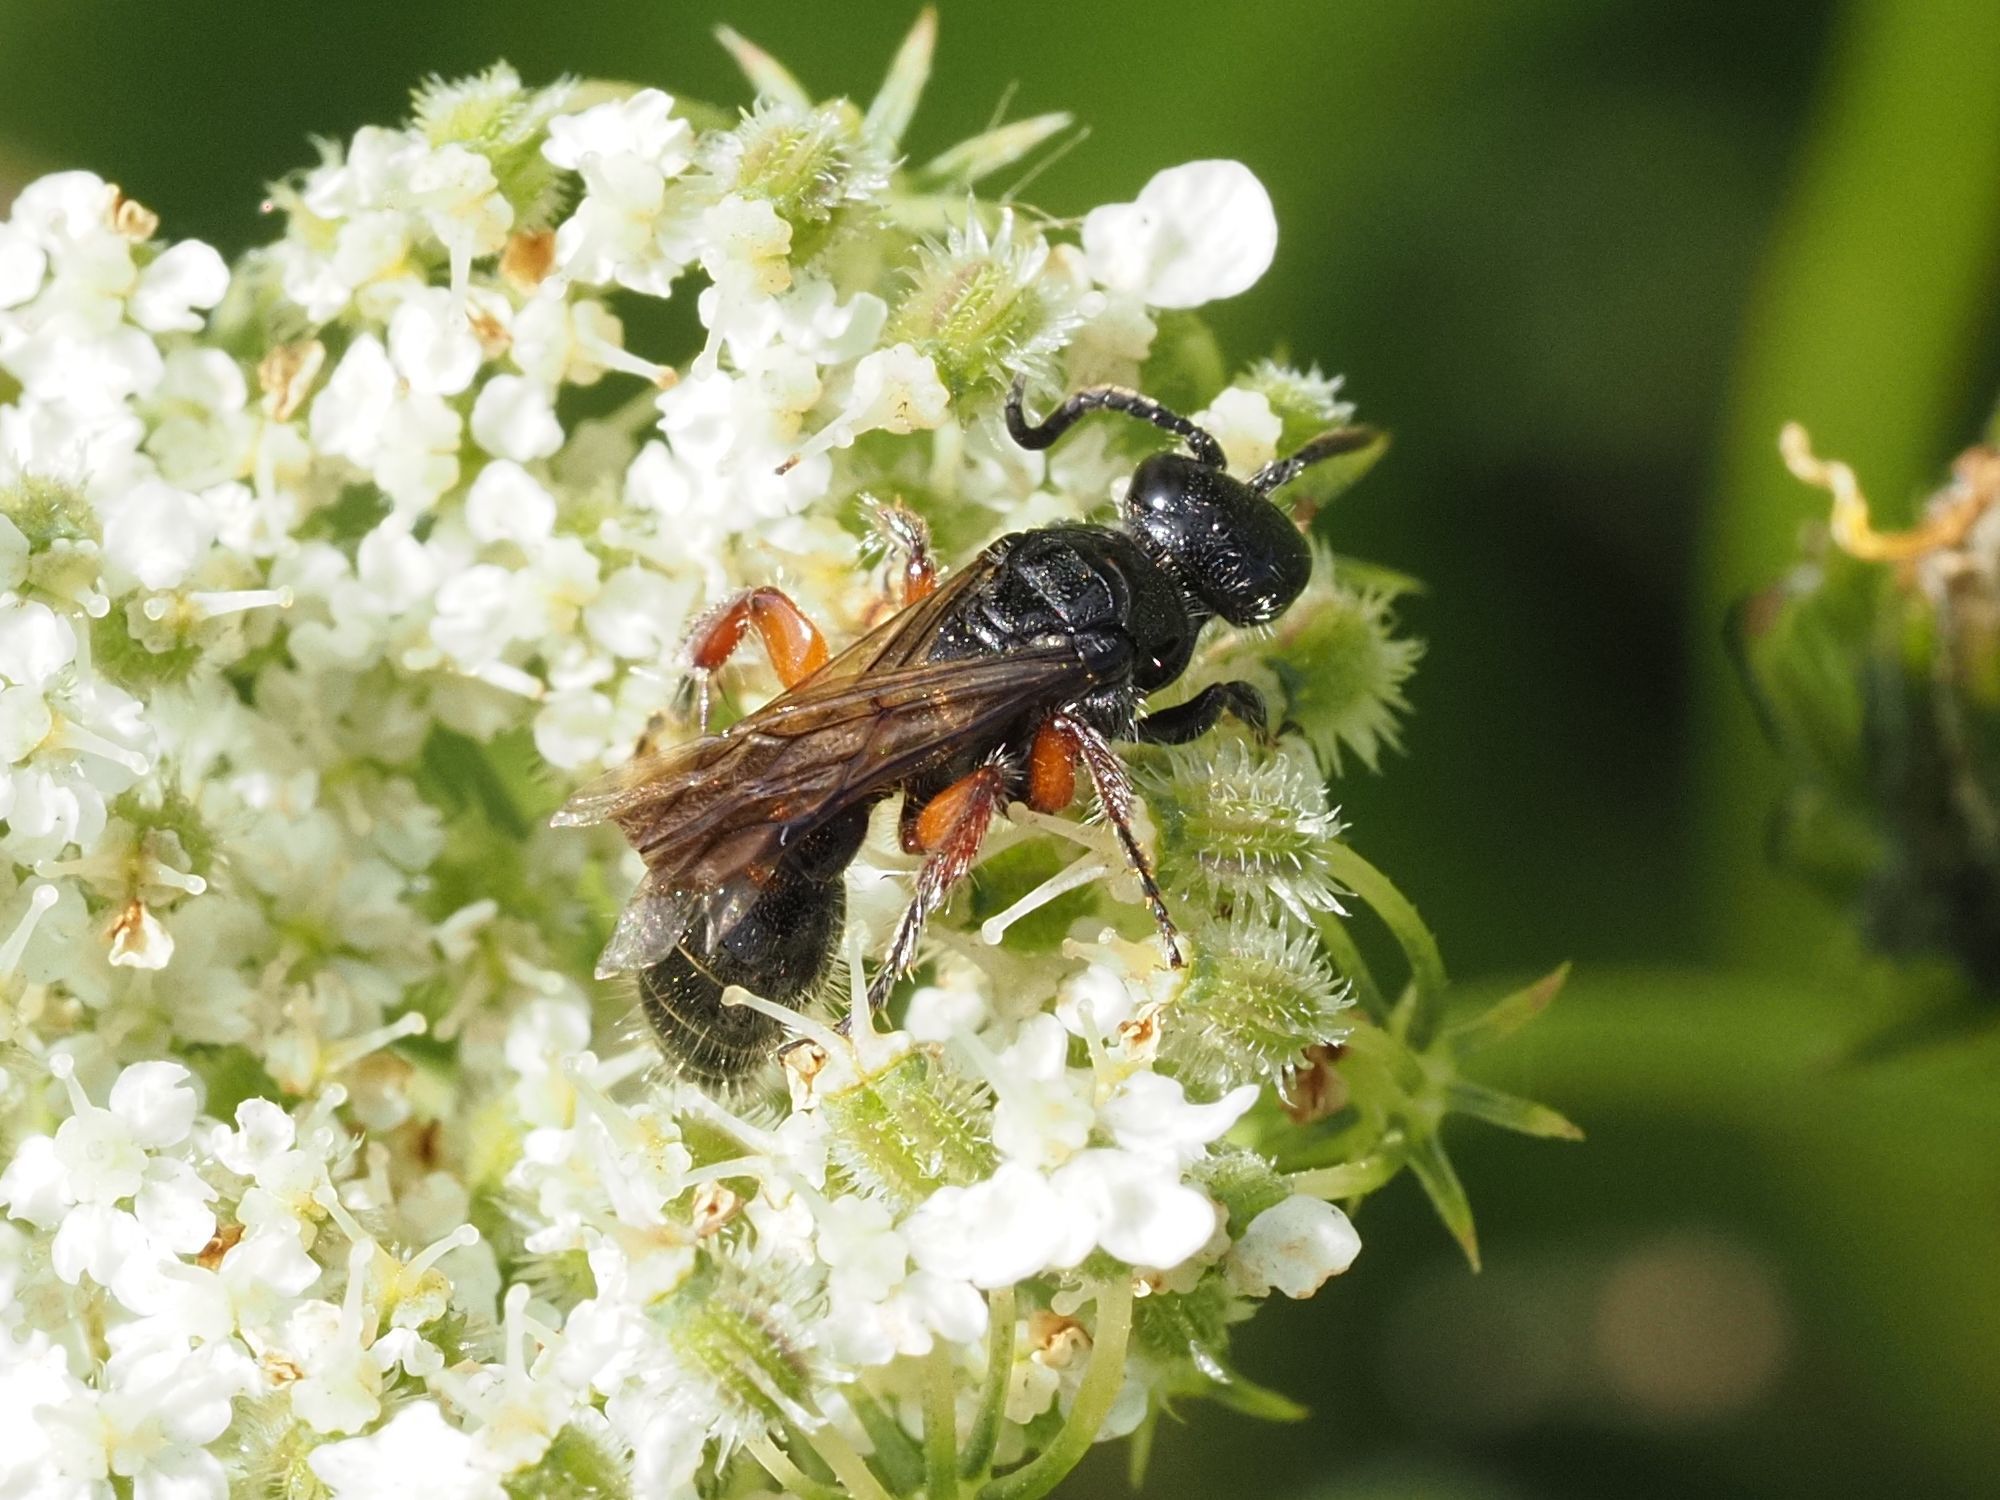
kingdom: Animalia
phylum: Arthropoda
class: Insecta
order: Hymenoptera
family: Tiphiidae
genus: Tiphia
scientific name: Tiphia femorata
